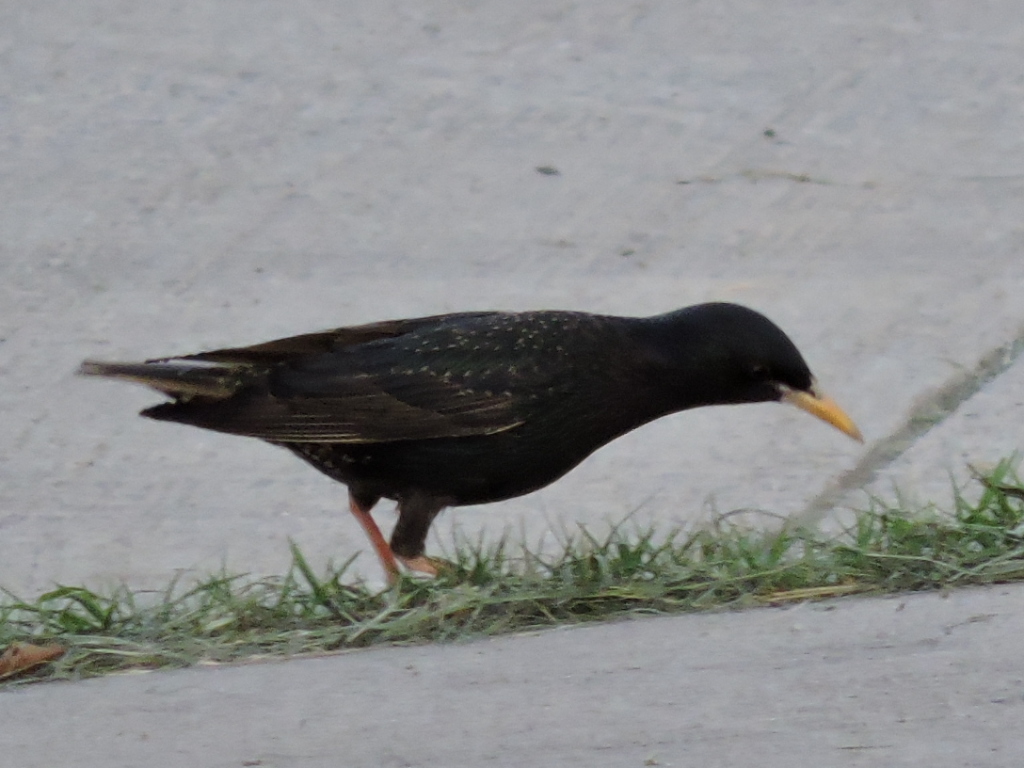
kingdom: Animalia
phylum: Chordata
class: Aves
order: Passeriformes
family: Sturnidae
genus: Sturnus
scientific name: Sturnus vulgaris
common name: Common starling
